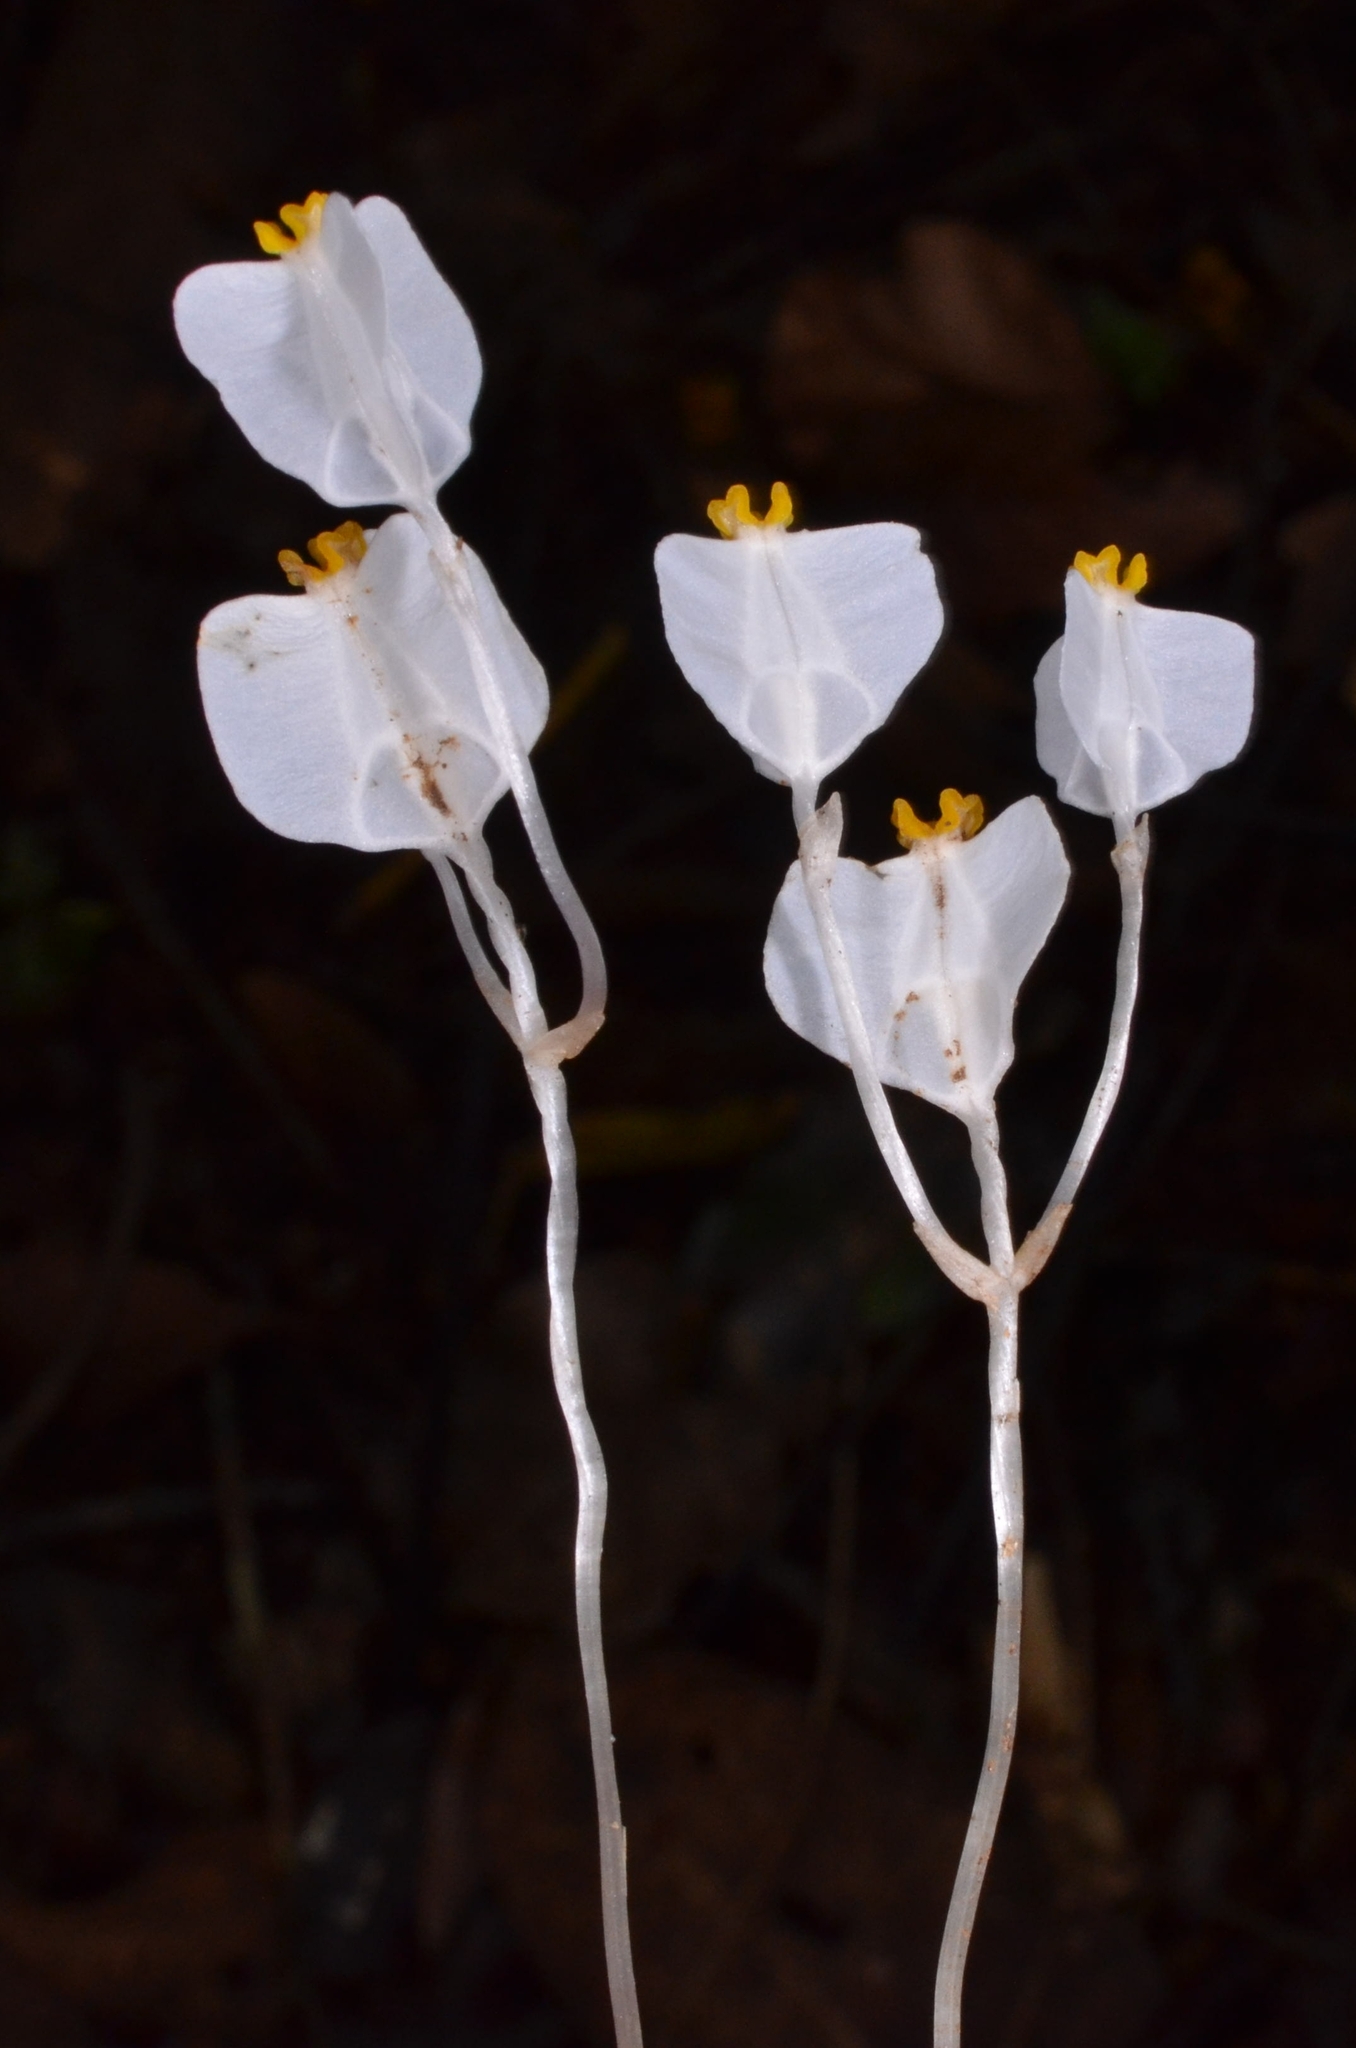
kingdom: Plantae
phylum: Tracheophyta
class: Liliopsida
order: Dioscoreales
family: Burmanniaceae
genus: Burmannia
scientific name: Burmannia oblonga
